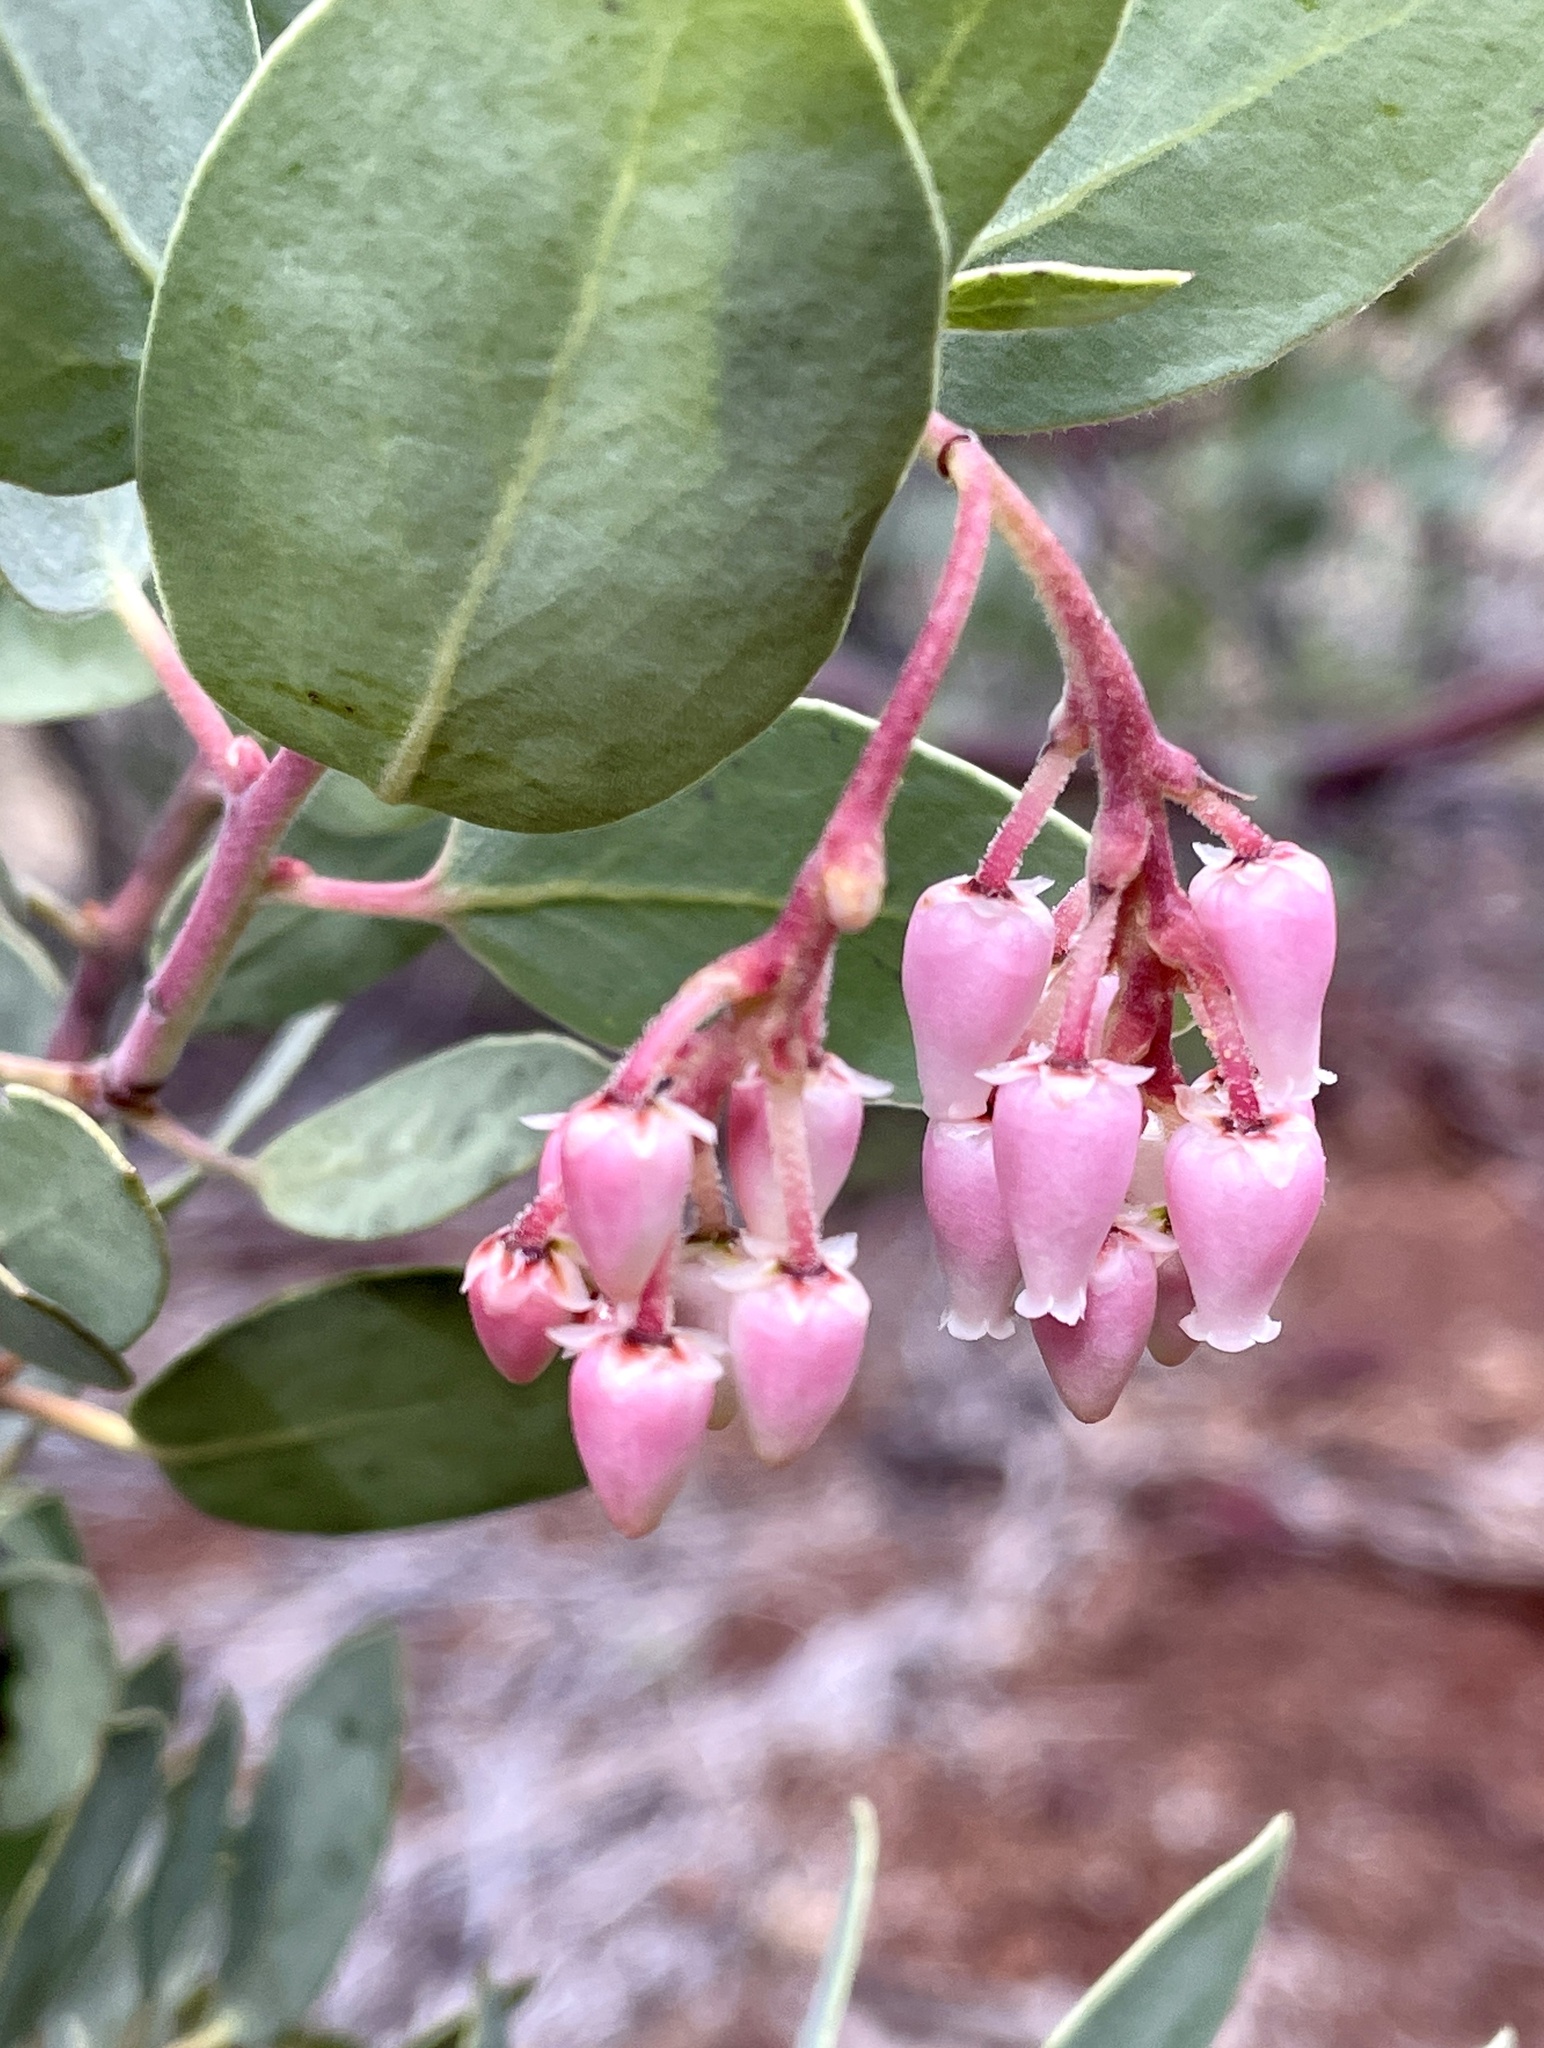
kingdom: Plantae
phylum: Tracheophyta
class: Magnoliopsida
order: Ericales
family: Ericaceae
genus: Arctostaphylos
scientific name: Arctostaphylos viscida
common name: White-leaf manzanita
